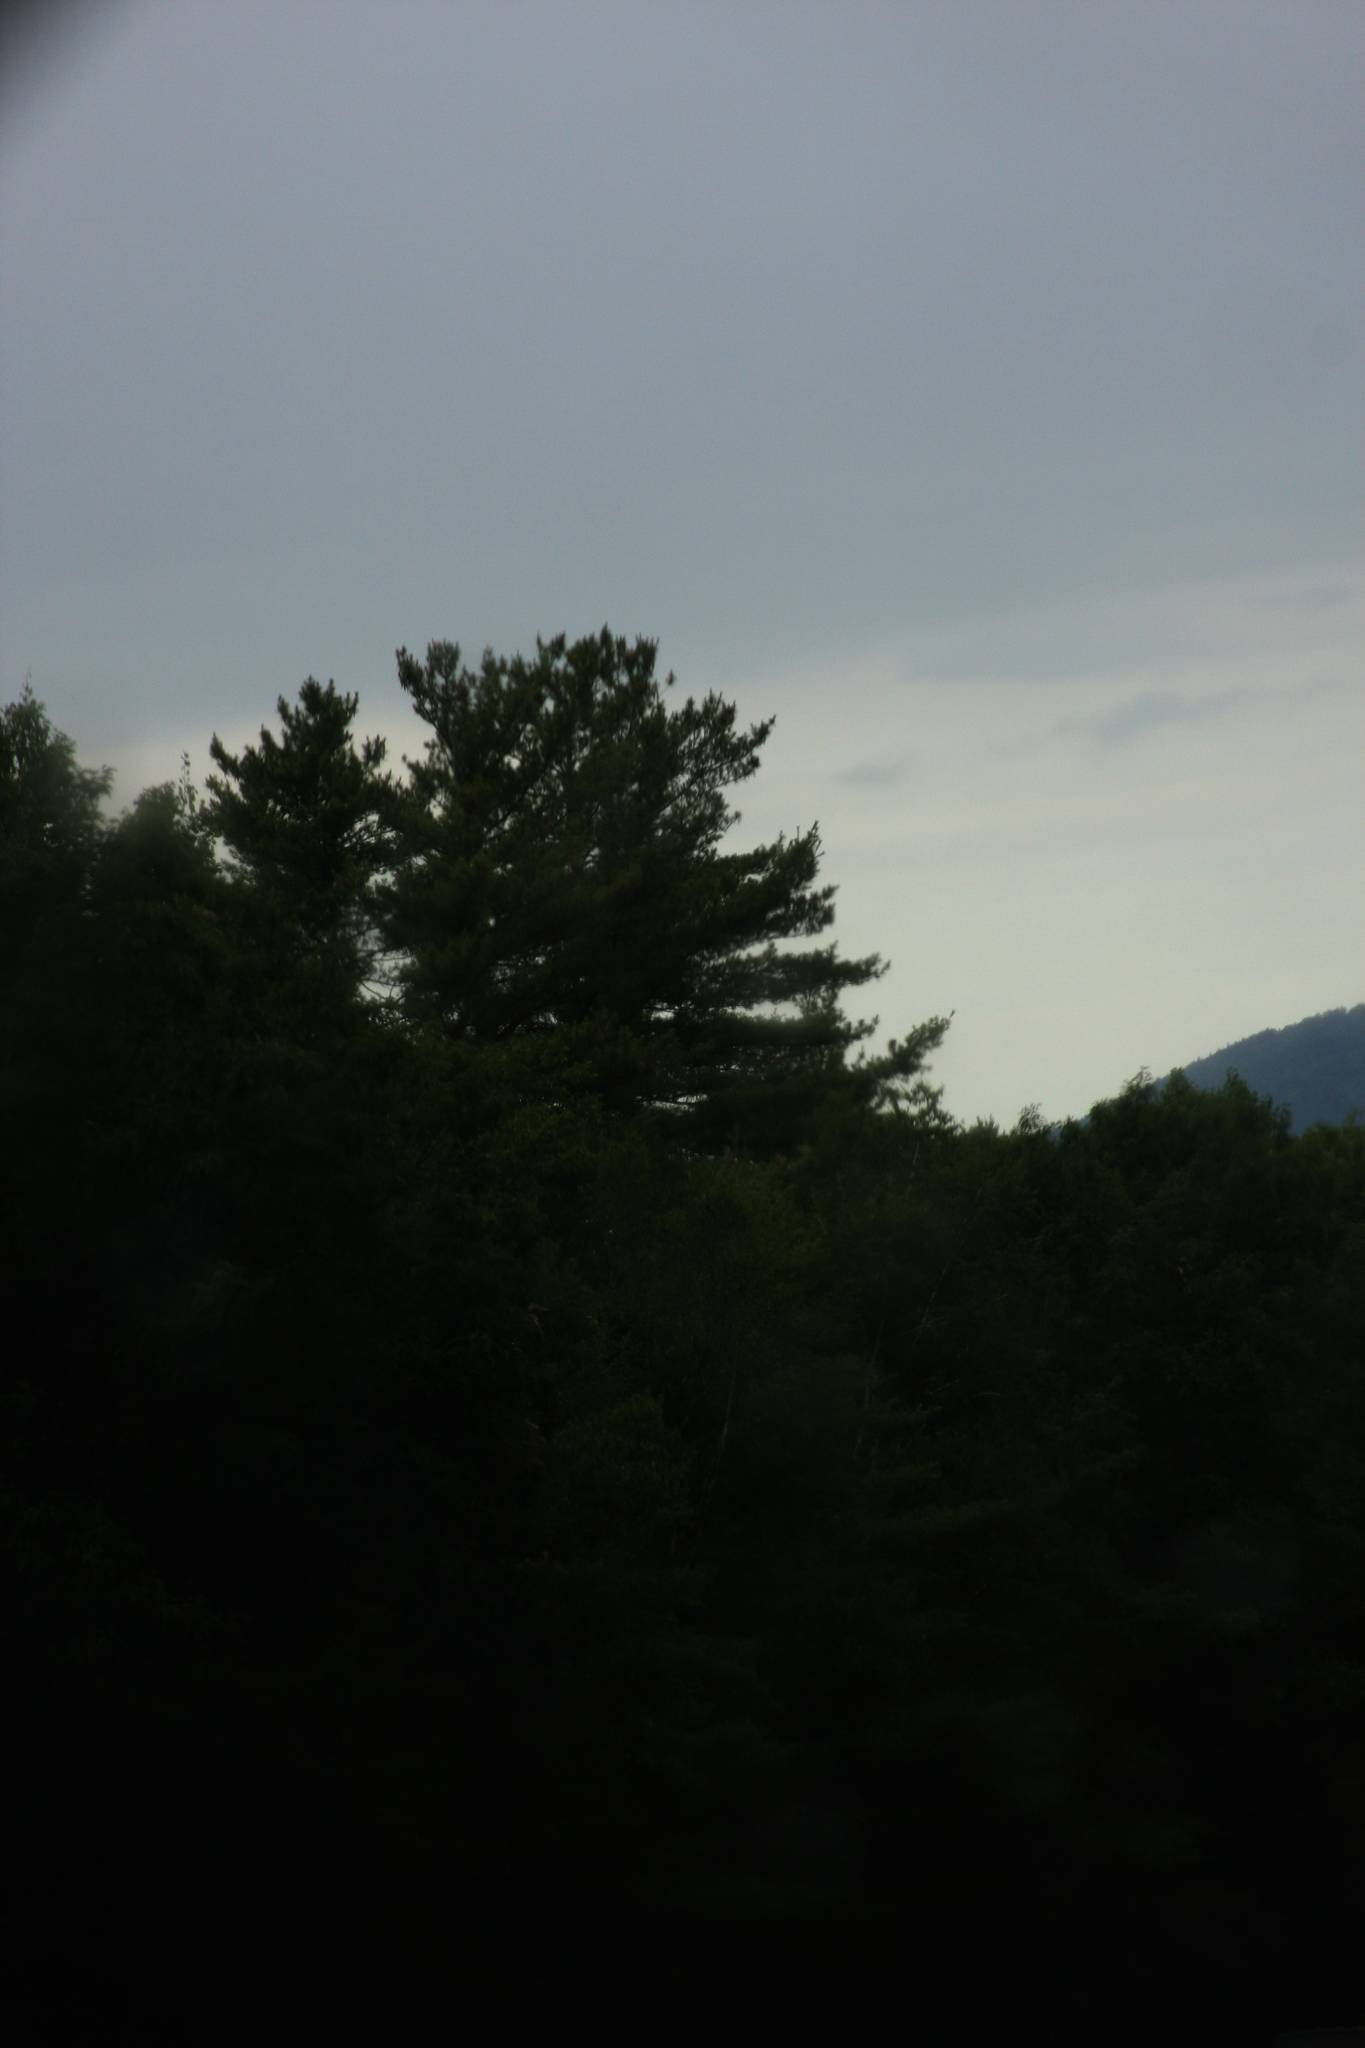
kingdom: Plantae
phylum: Tracheophyta
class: Pinopsida
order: Pinales
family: Pinaceae
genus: Pinus
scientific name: Pinus strobus
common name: Weymouth pine
